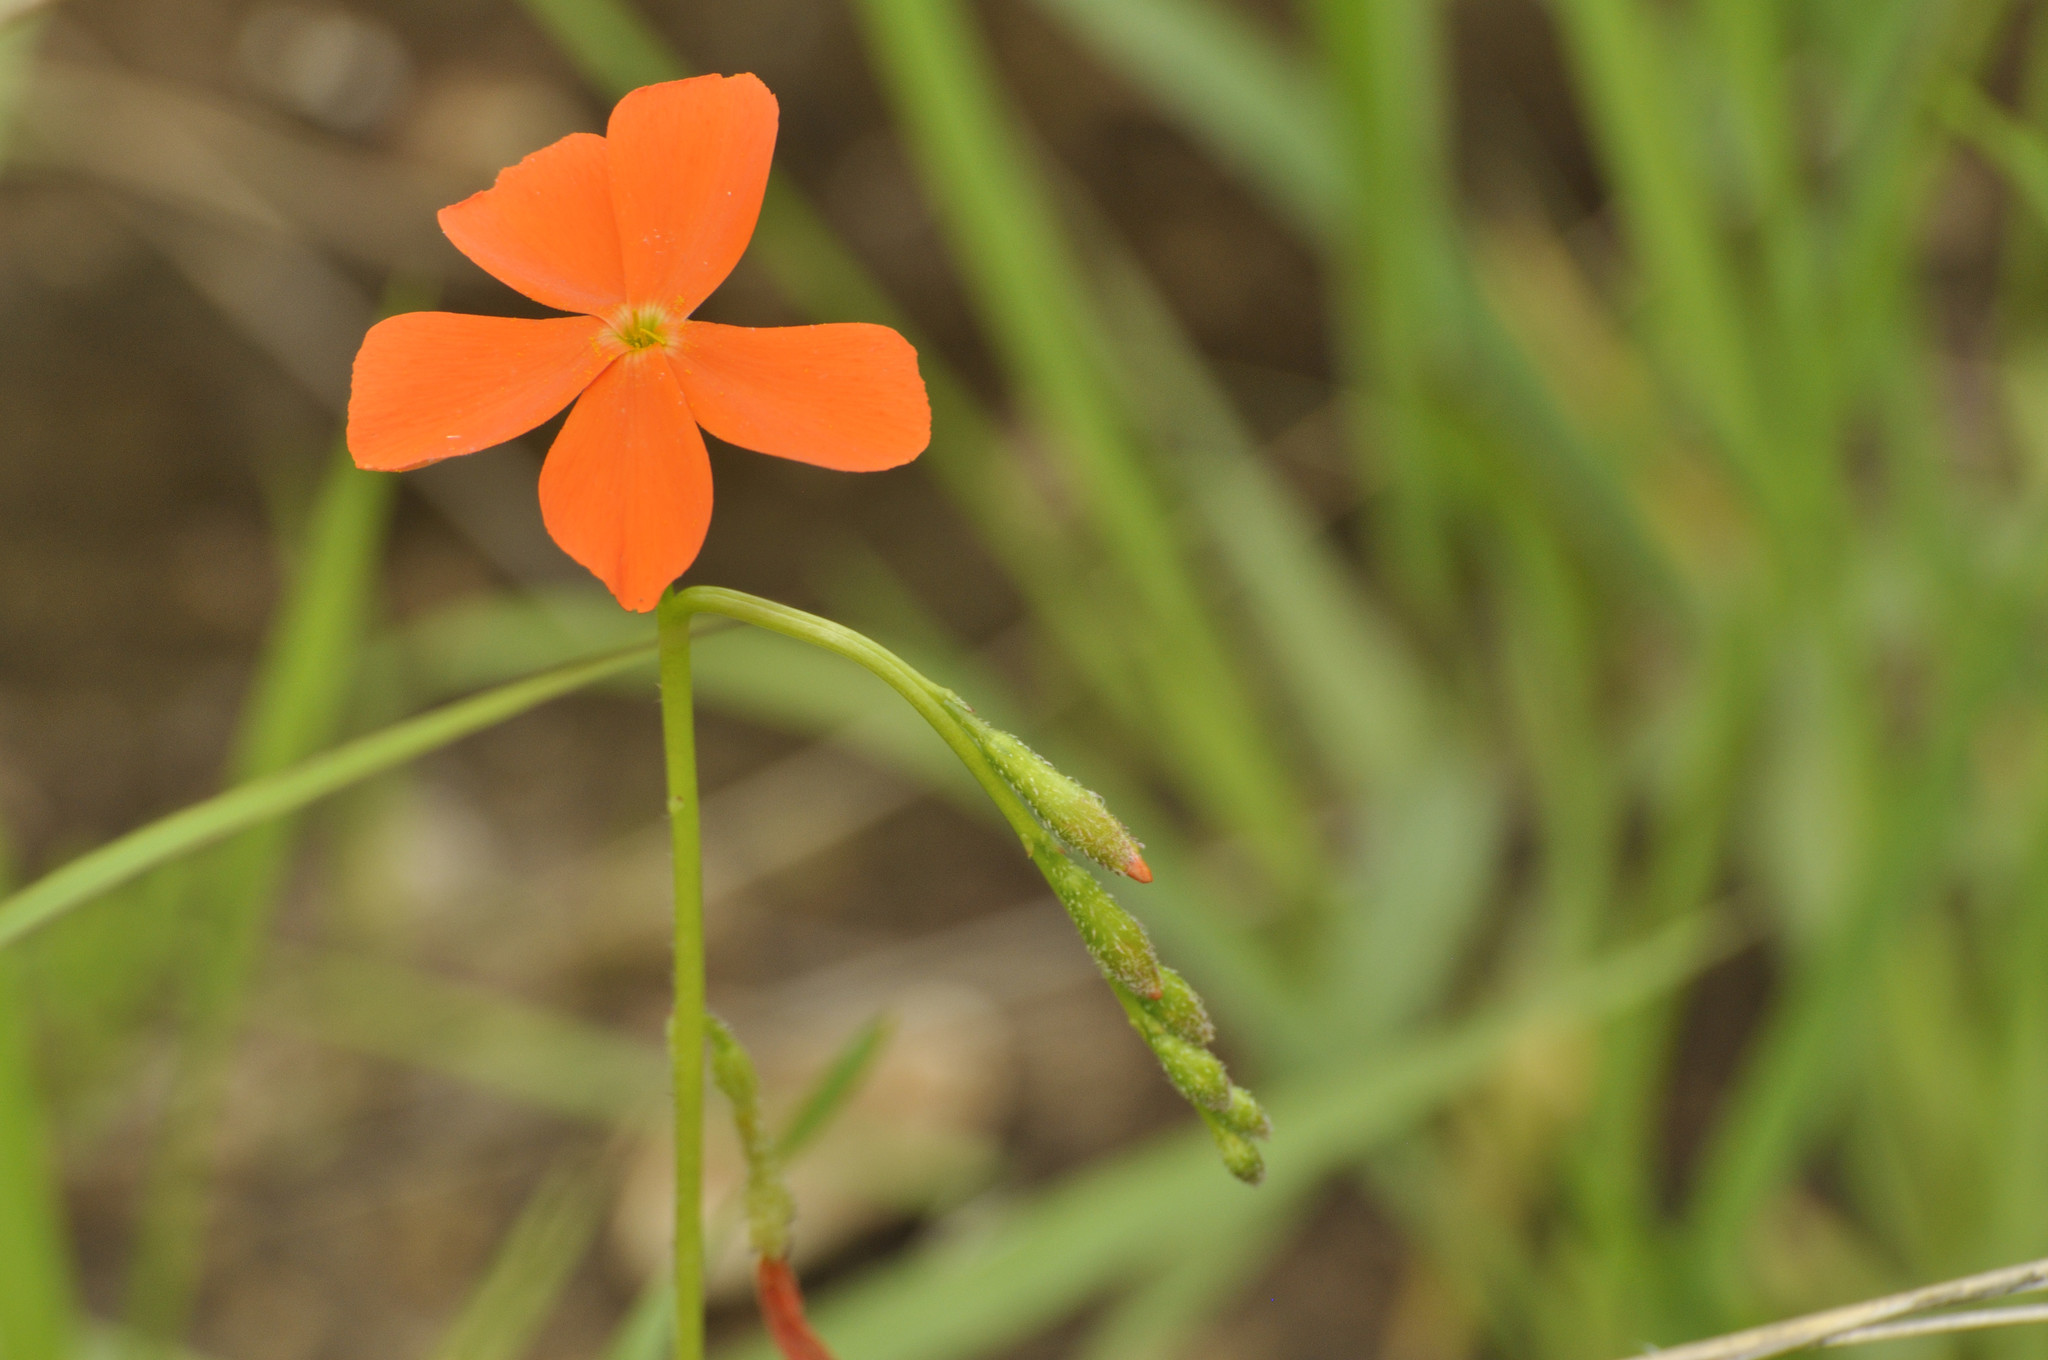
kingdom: Plantae
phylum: Tracheophyta
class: Magnoliopsida
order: Malpighiales
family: Turneraceae
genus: Tricliceras
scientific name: Tricliceras longepedunculatum
